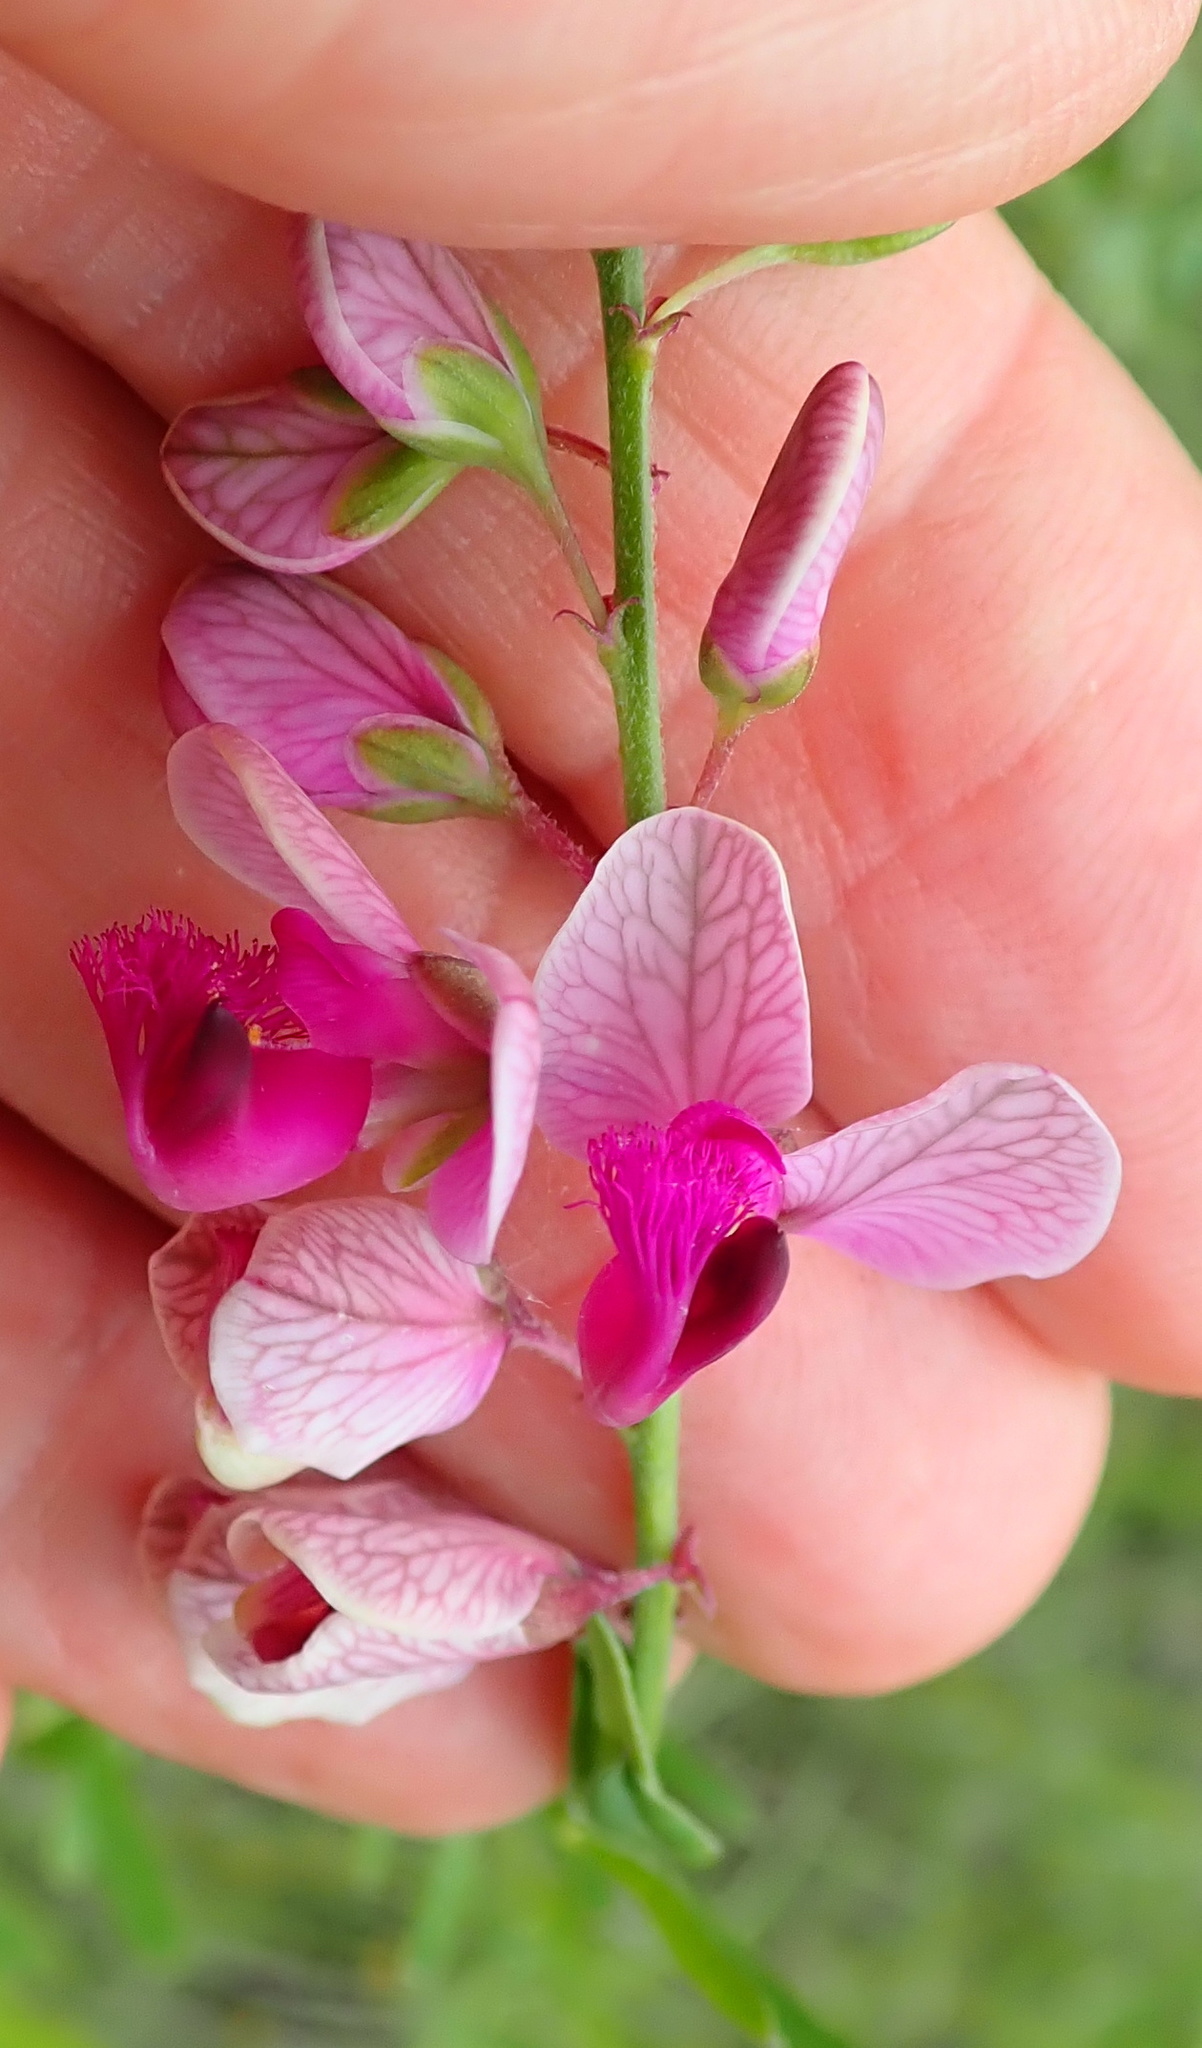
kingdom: Plantae
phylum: Tracheophyta
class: Magnoliopsida
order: Fabales
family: Polygalaceae
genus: Polygala
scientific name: Polygala hottentotta
